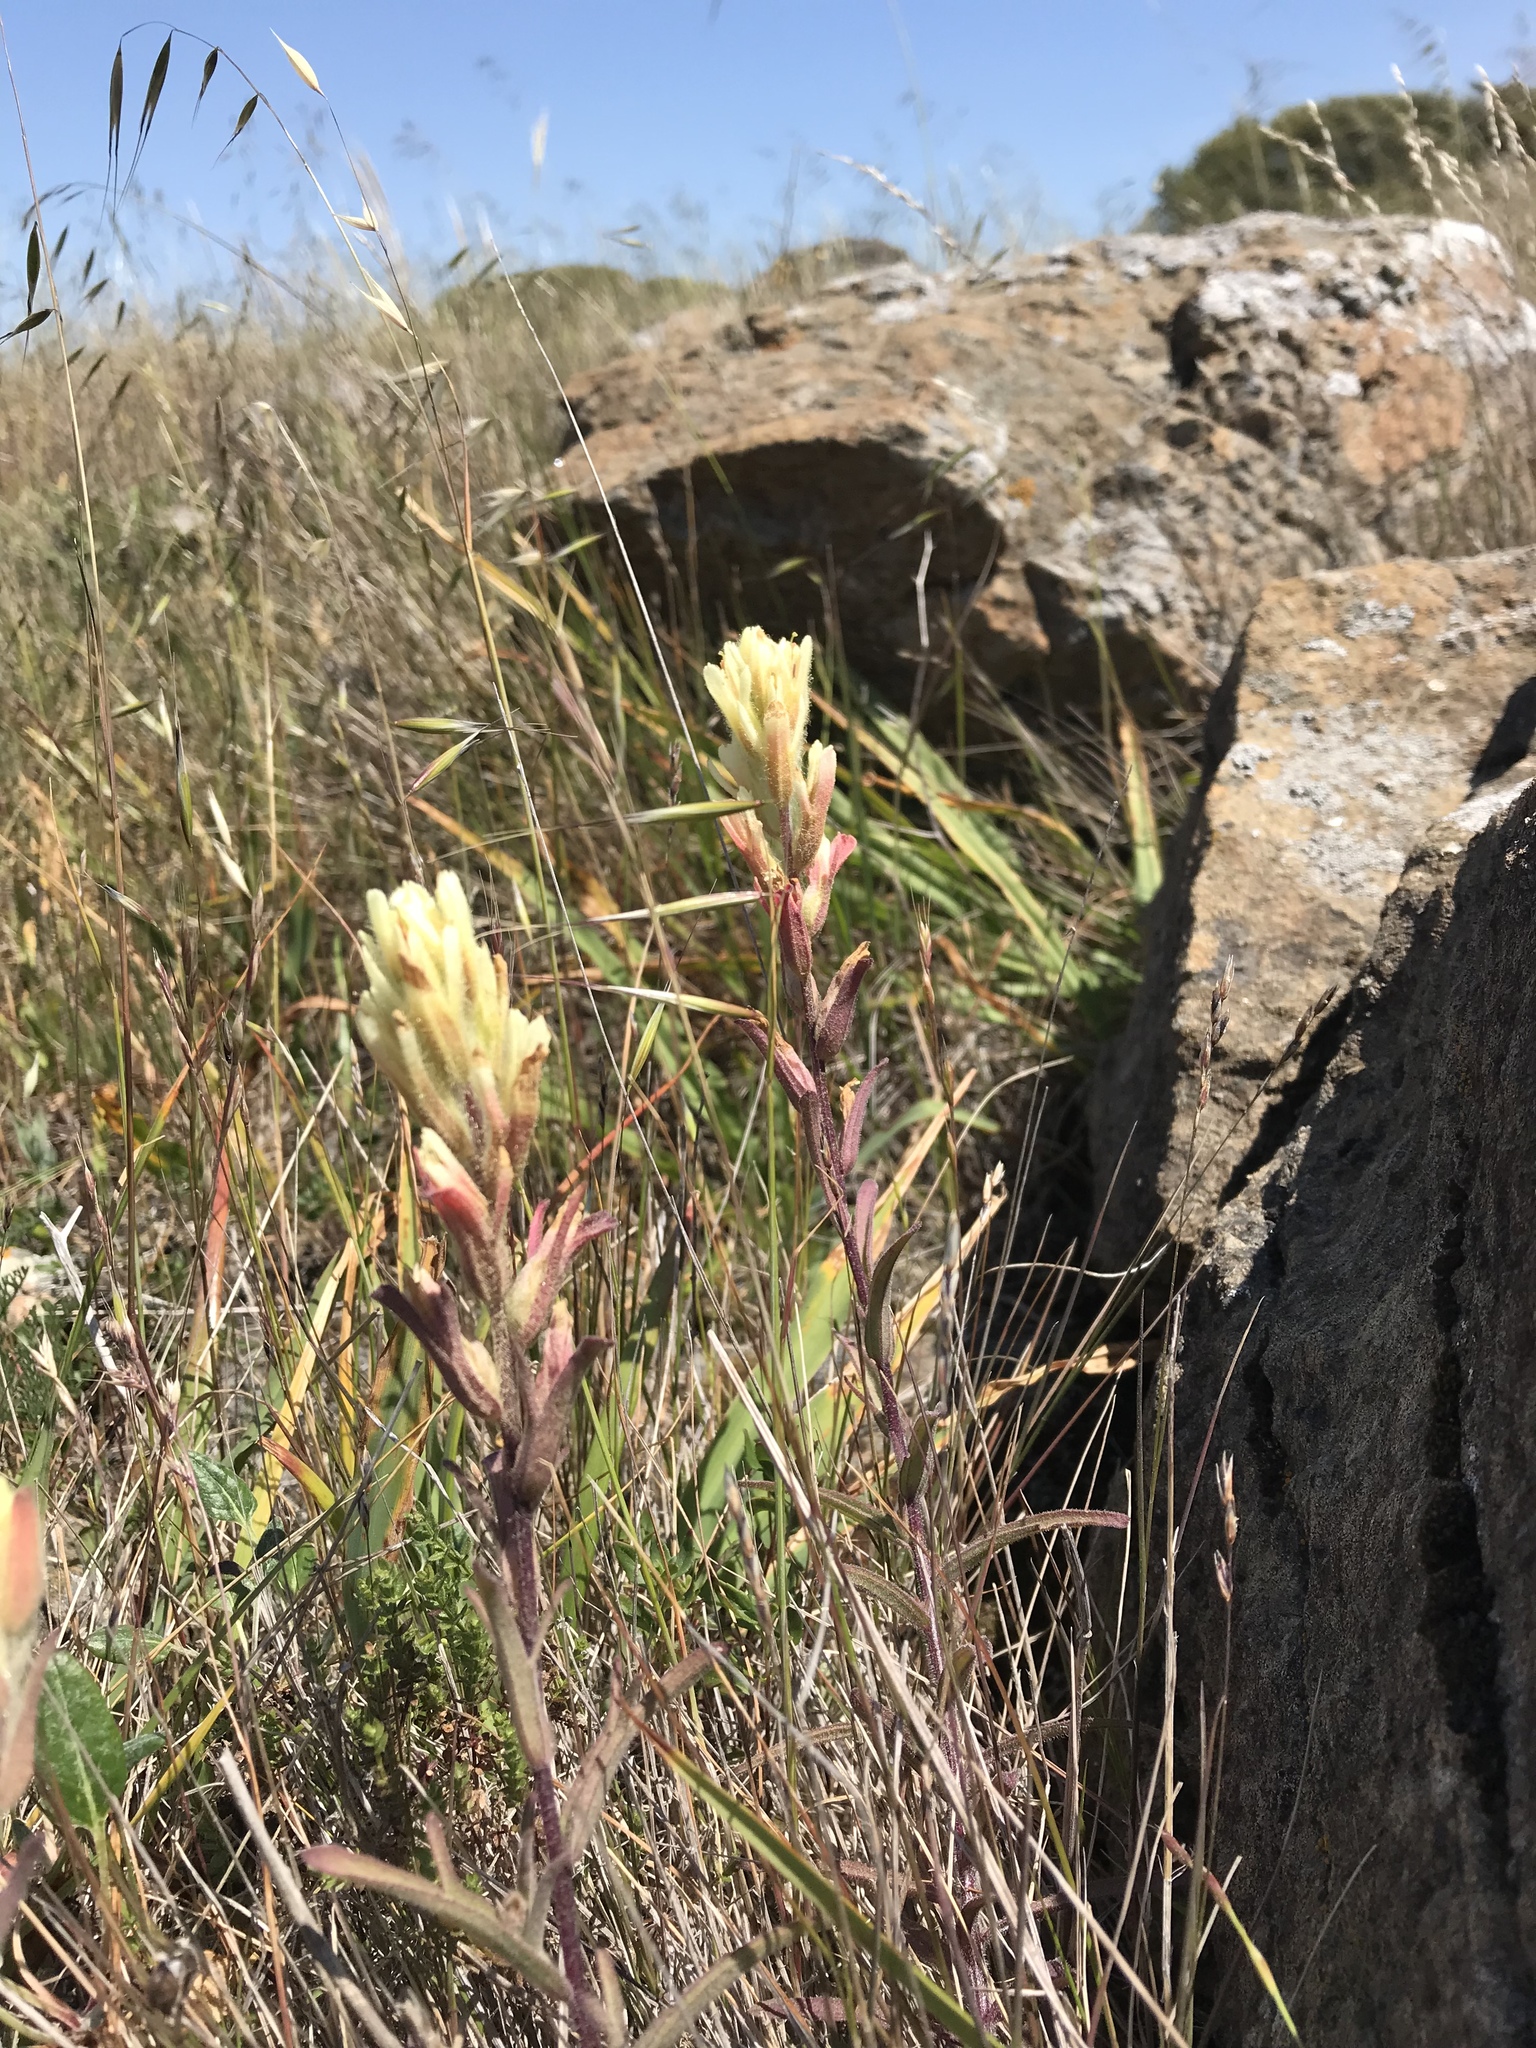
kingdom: Plantae
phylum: Tracheophyta
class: Magnoliopsida
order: Lamiales
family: Orobanchaceae
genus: Castilleja
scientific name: Castilleja affinis
